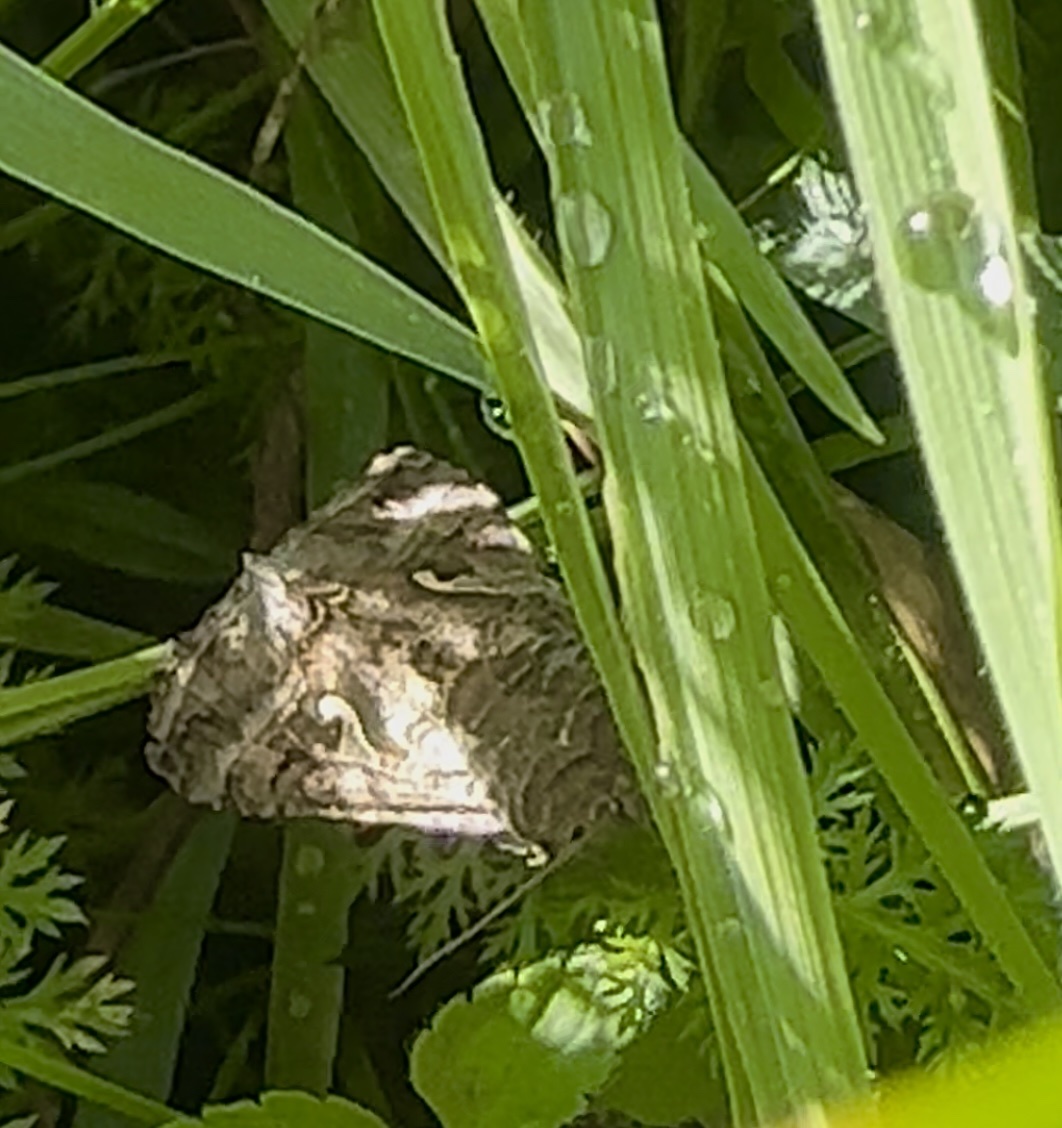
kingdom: Animalia
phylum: Arthropoda
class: Insecta
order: Lepidoptera
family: Noctuidae
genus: Autographa
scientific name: Autographa gamma
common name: Silver y
